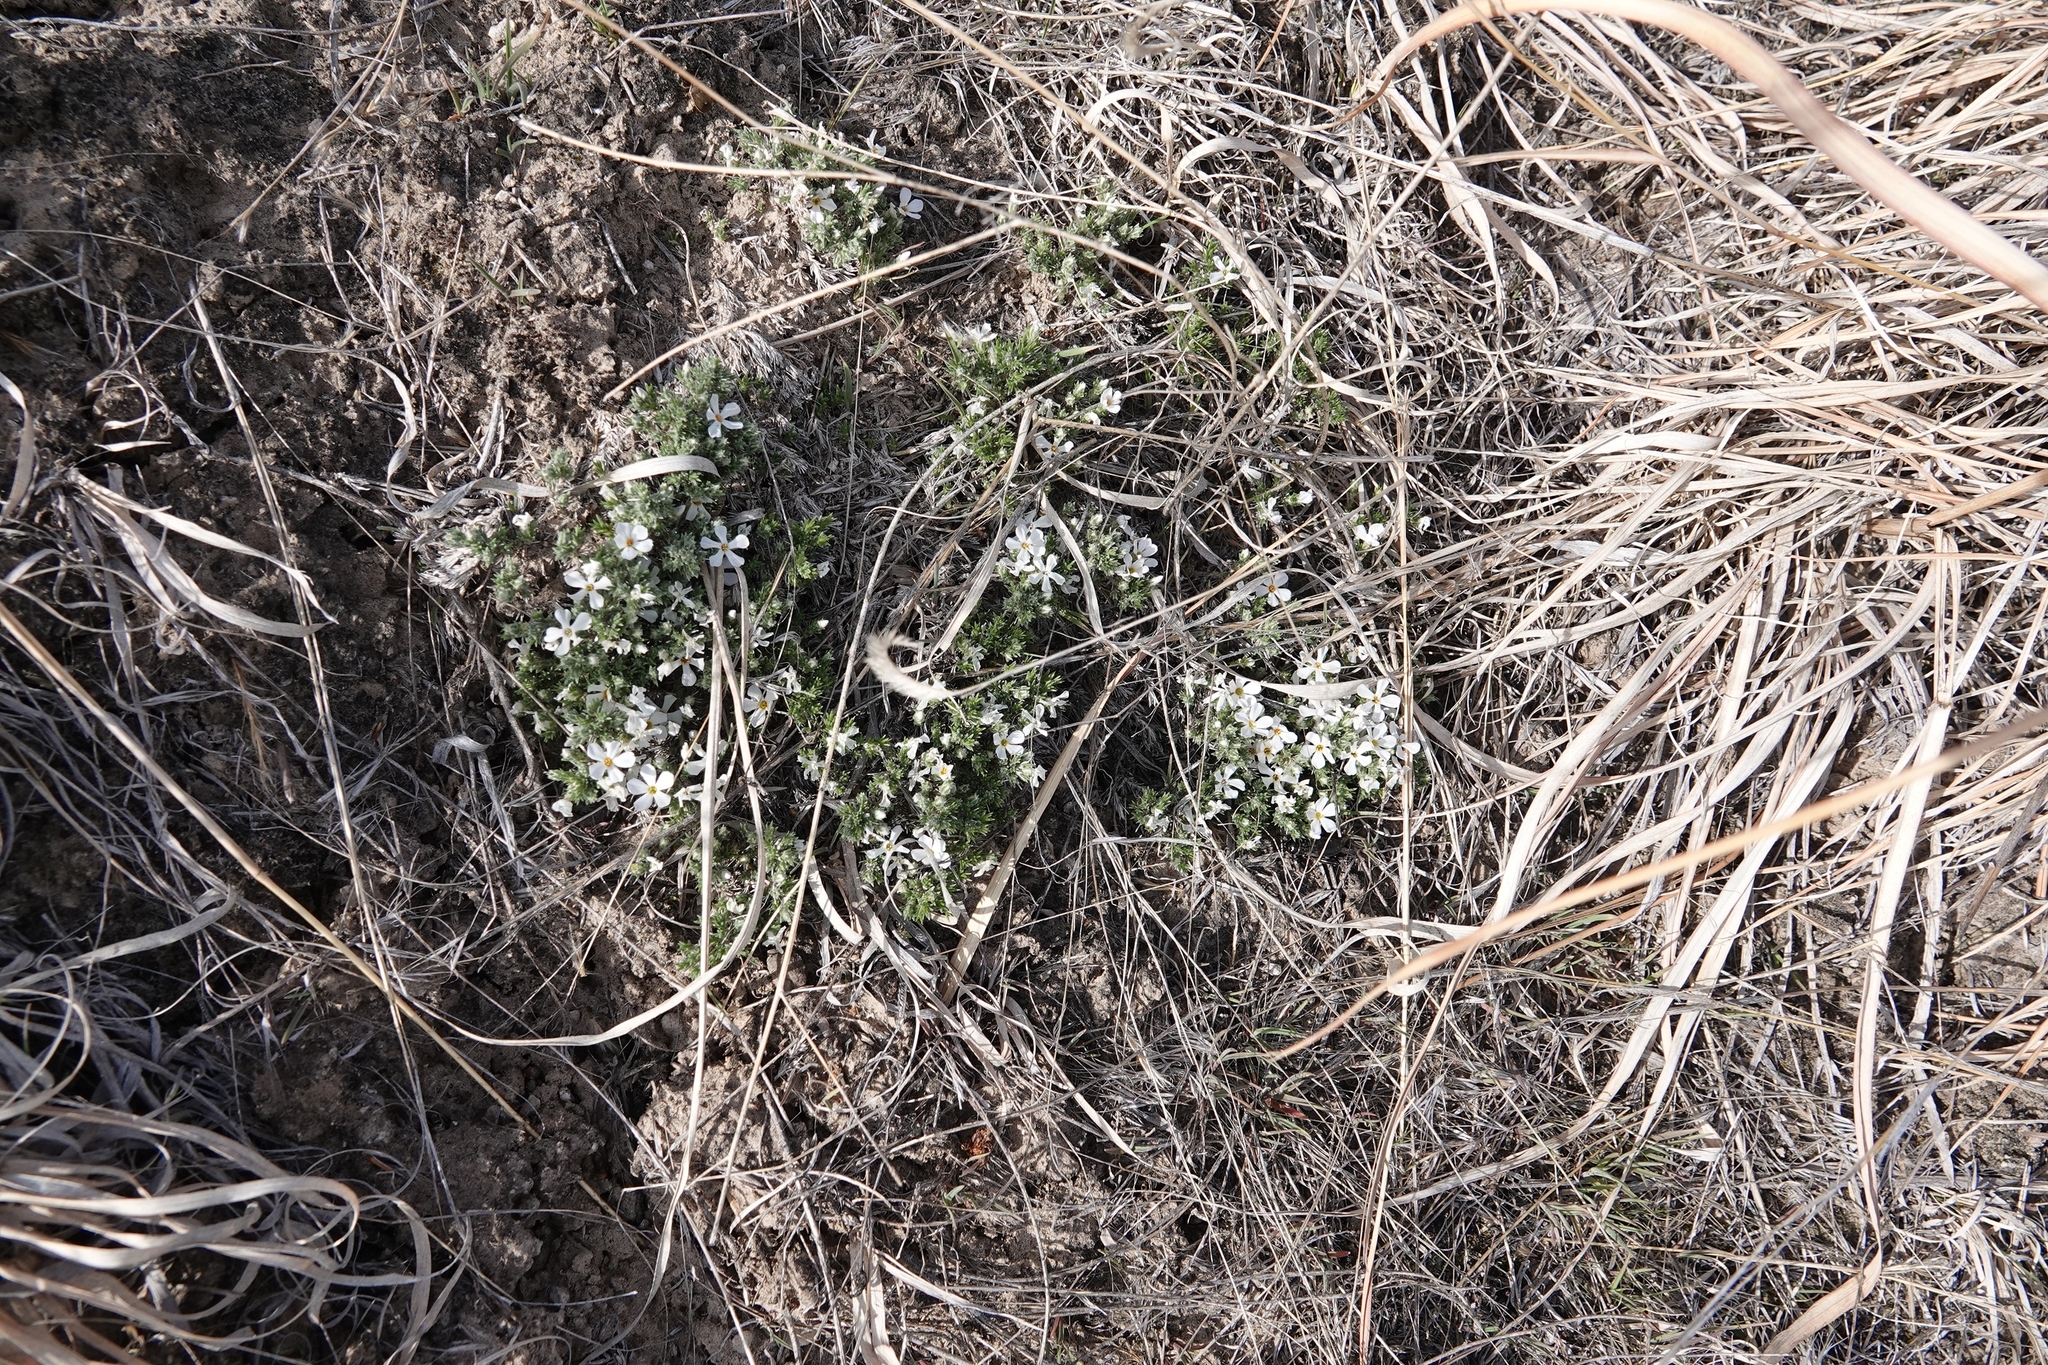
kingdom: Plantae
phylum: Tracheophyta
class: Magnoliopsida
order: Ericales
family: Polemoniaceae
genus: Phlox
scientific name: Phlox hoodii
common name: Moss phlox
